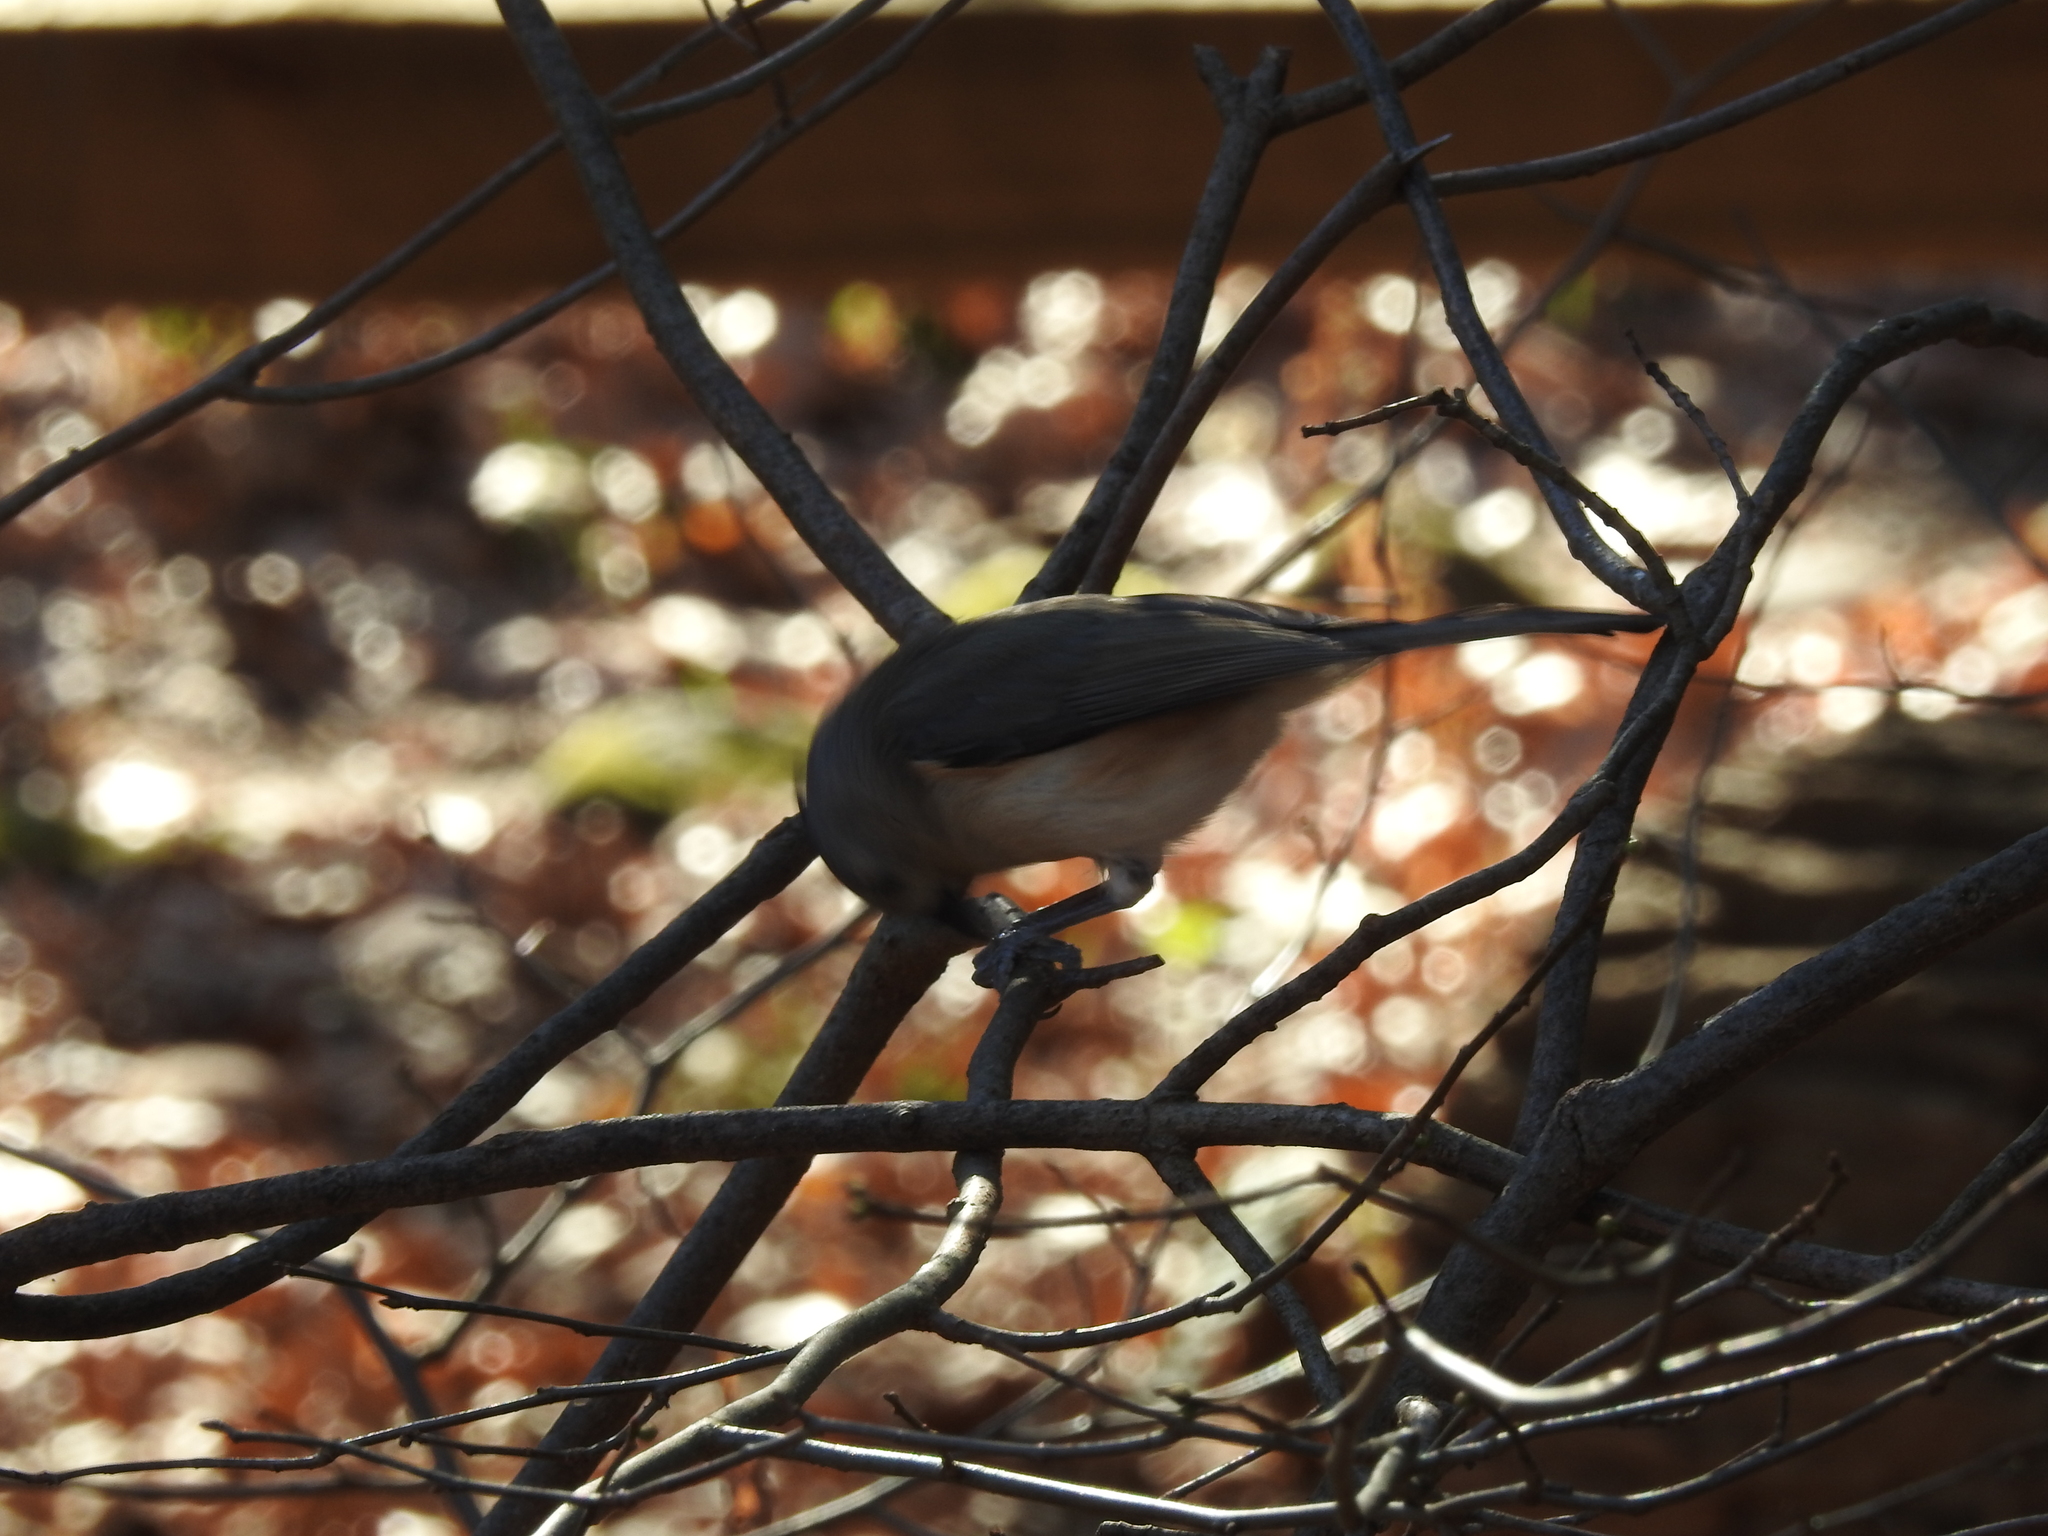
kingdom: Animalia
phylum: Chordata
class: Aves
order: Passeriformes
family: Paridae
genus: Baeolophus
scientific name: Baeolophus bicolor
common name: Tufted titmouse
